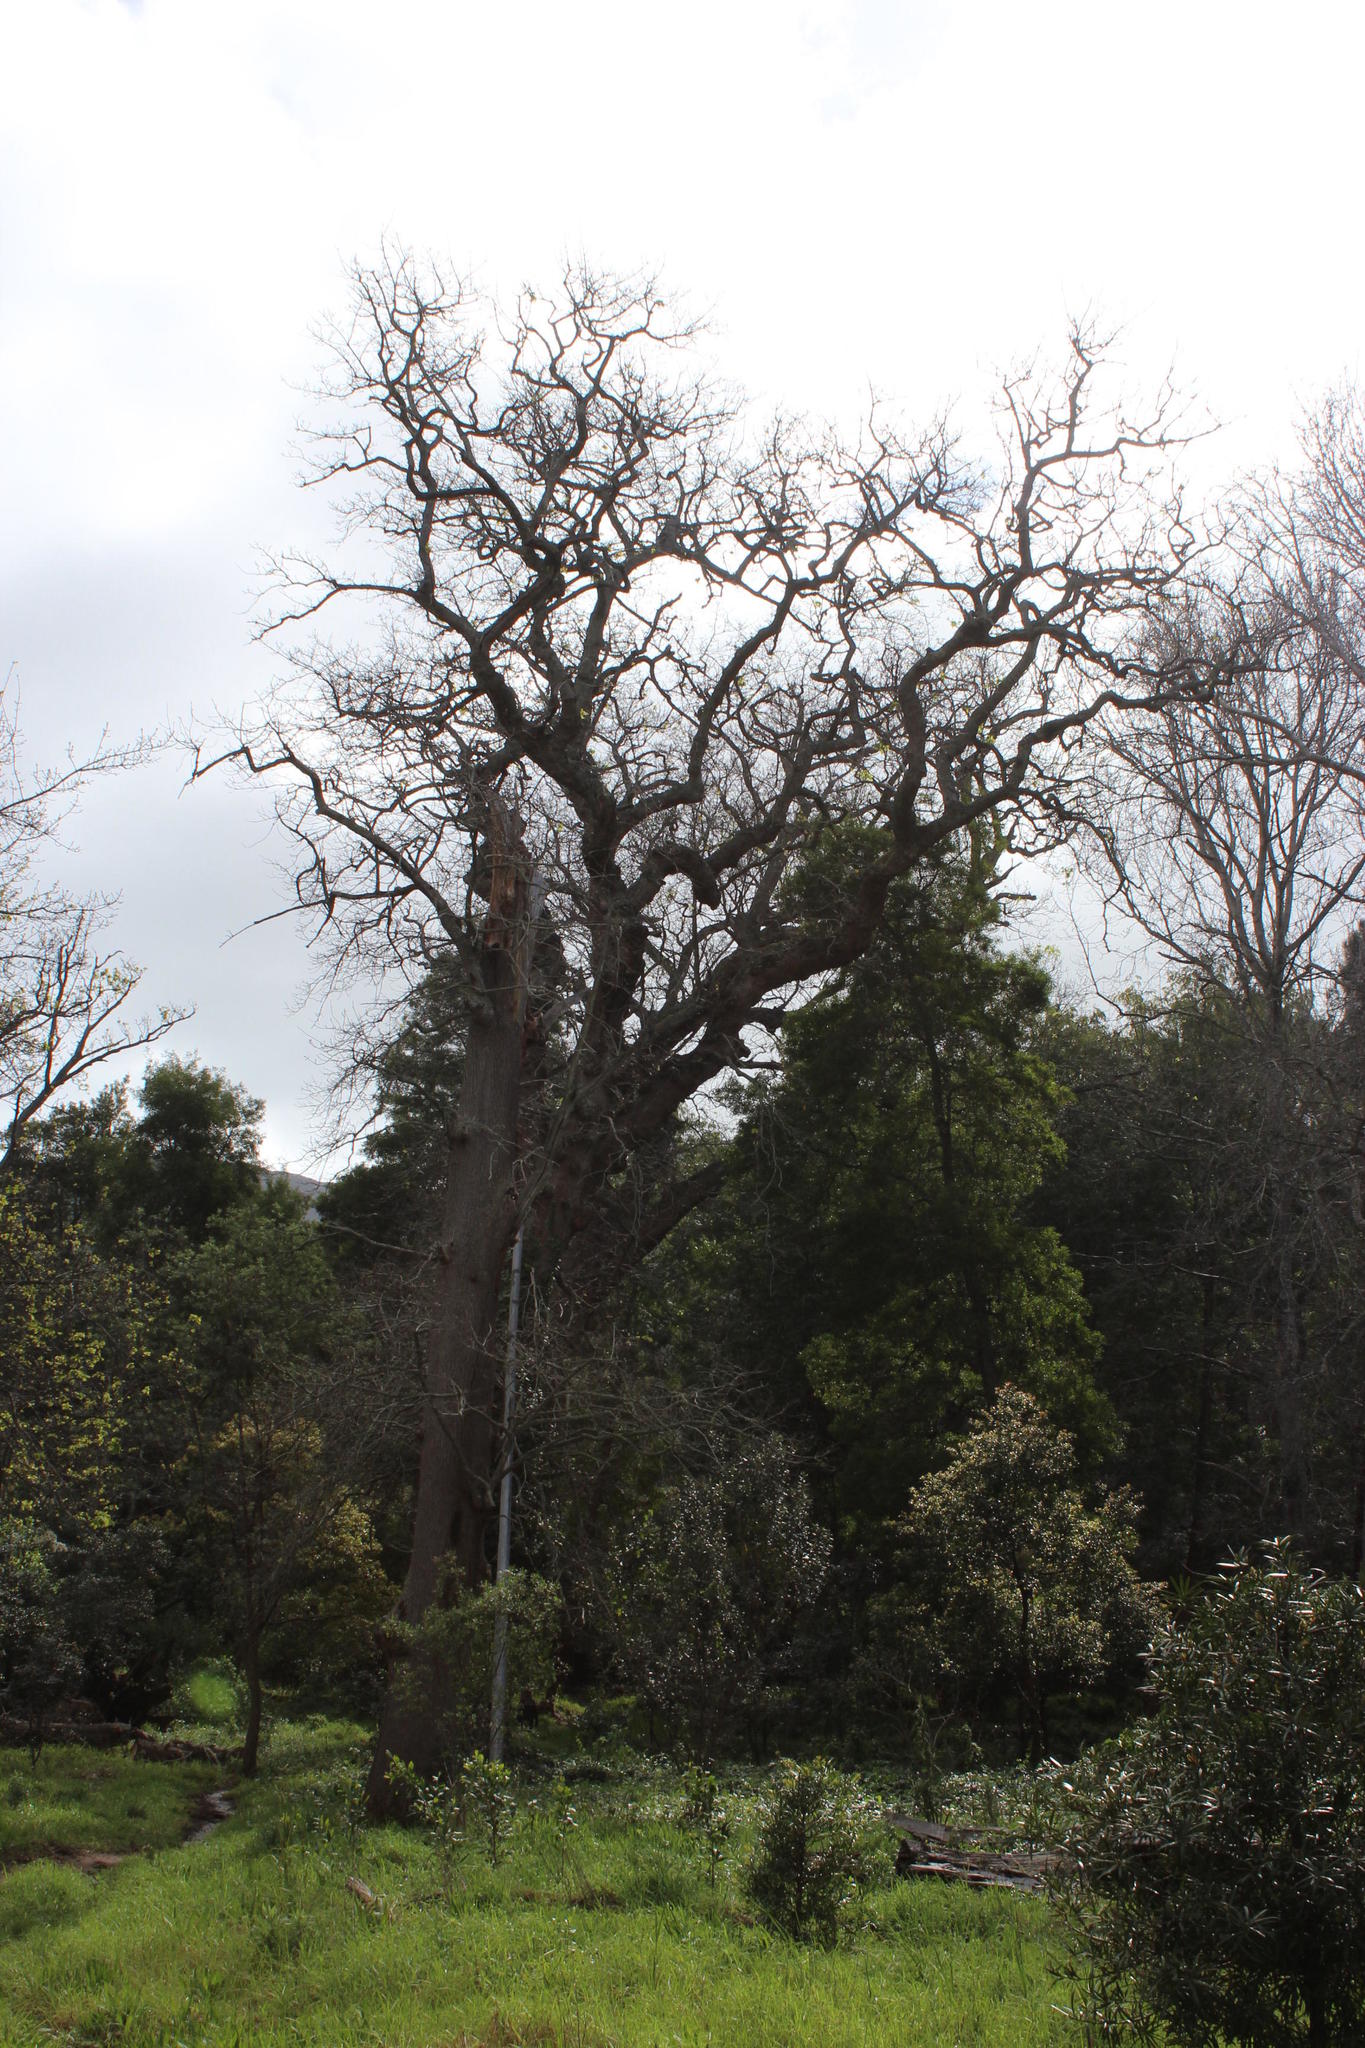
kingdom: Plantae
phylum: Tracheophyta
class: Magnoliopsida
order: Fagales
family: Fagaceae
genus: Quercus
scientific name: Quercus robur
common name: Pedunculate oak
